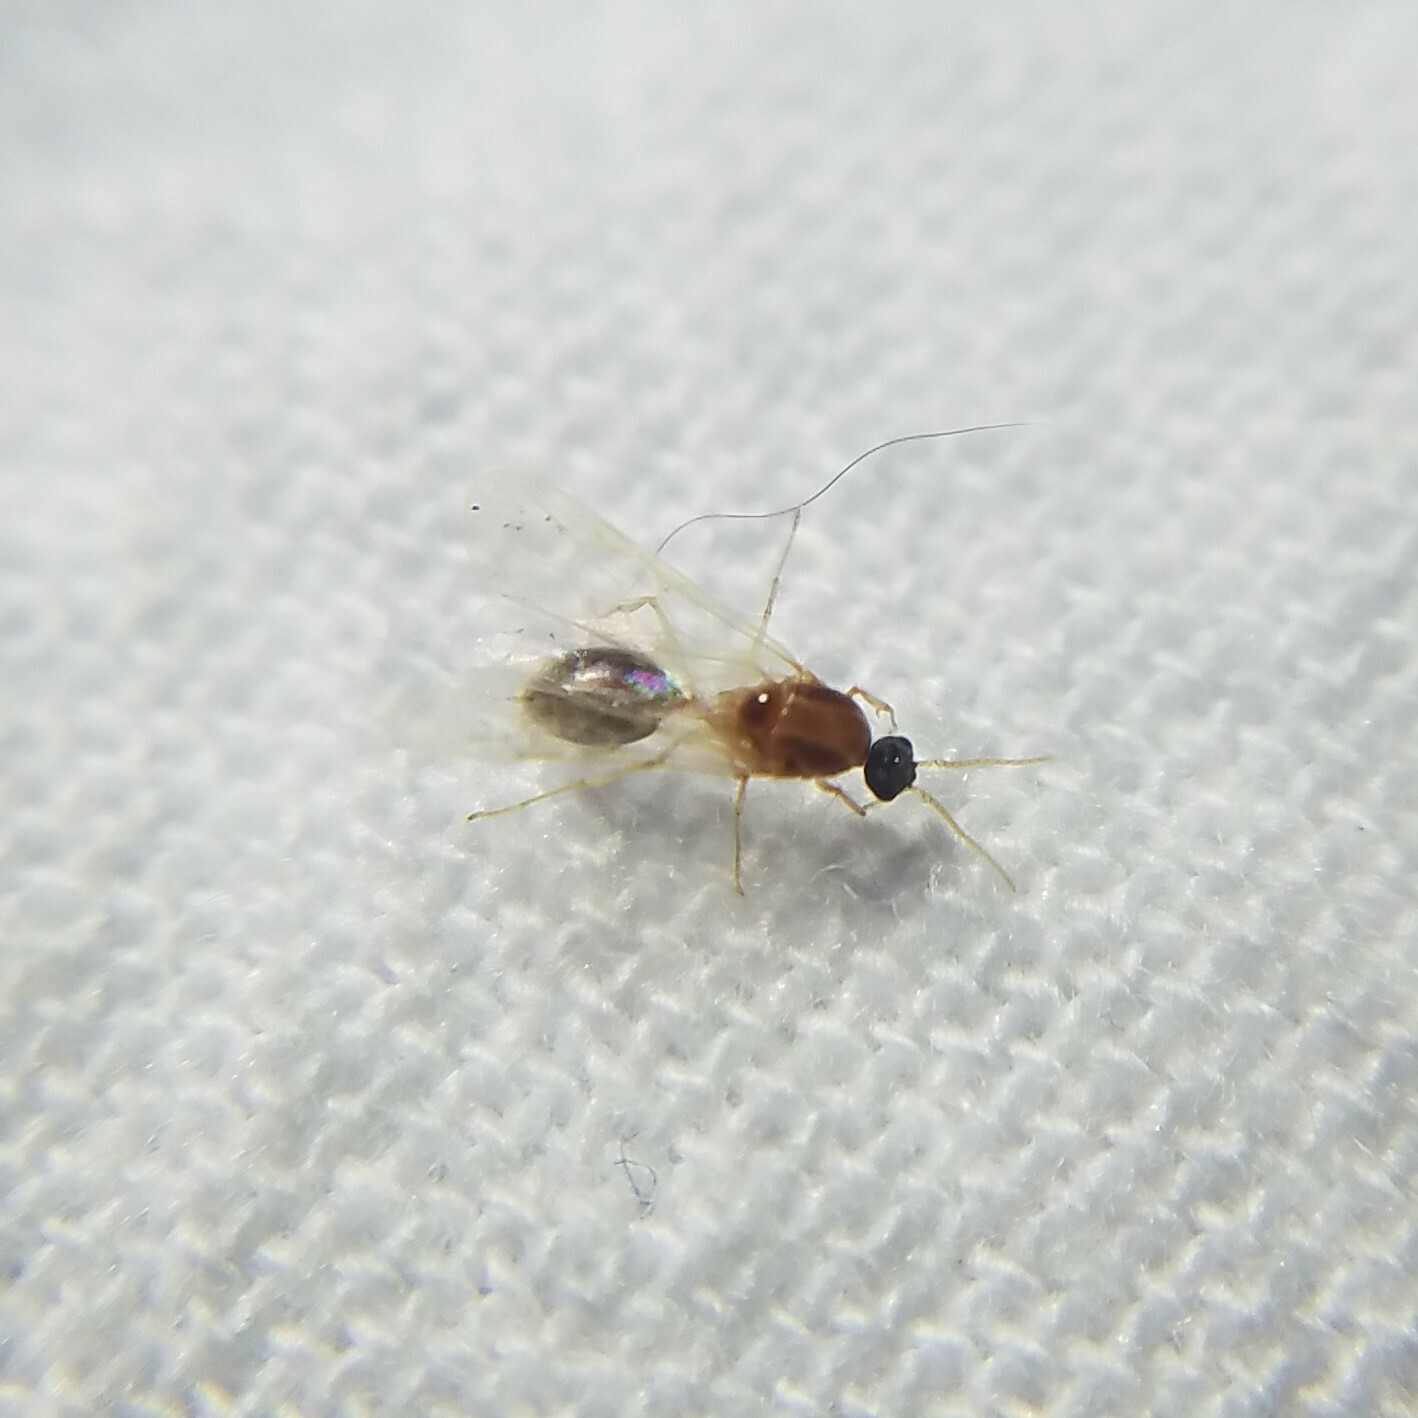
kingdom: Animalia
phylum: Arthropoda
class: Insecta
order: Hymenoptera
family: Formicidae
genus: Pheidole
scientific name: Pheidole bicarinata
